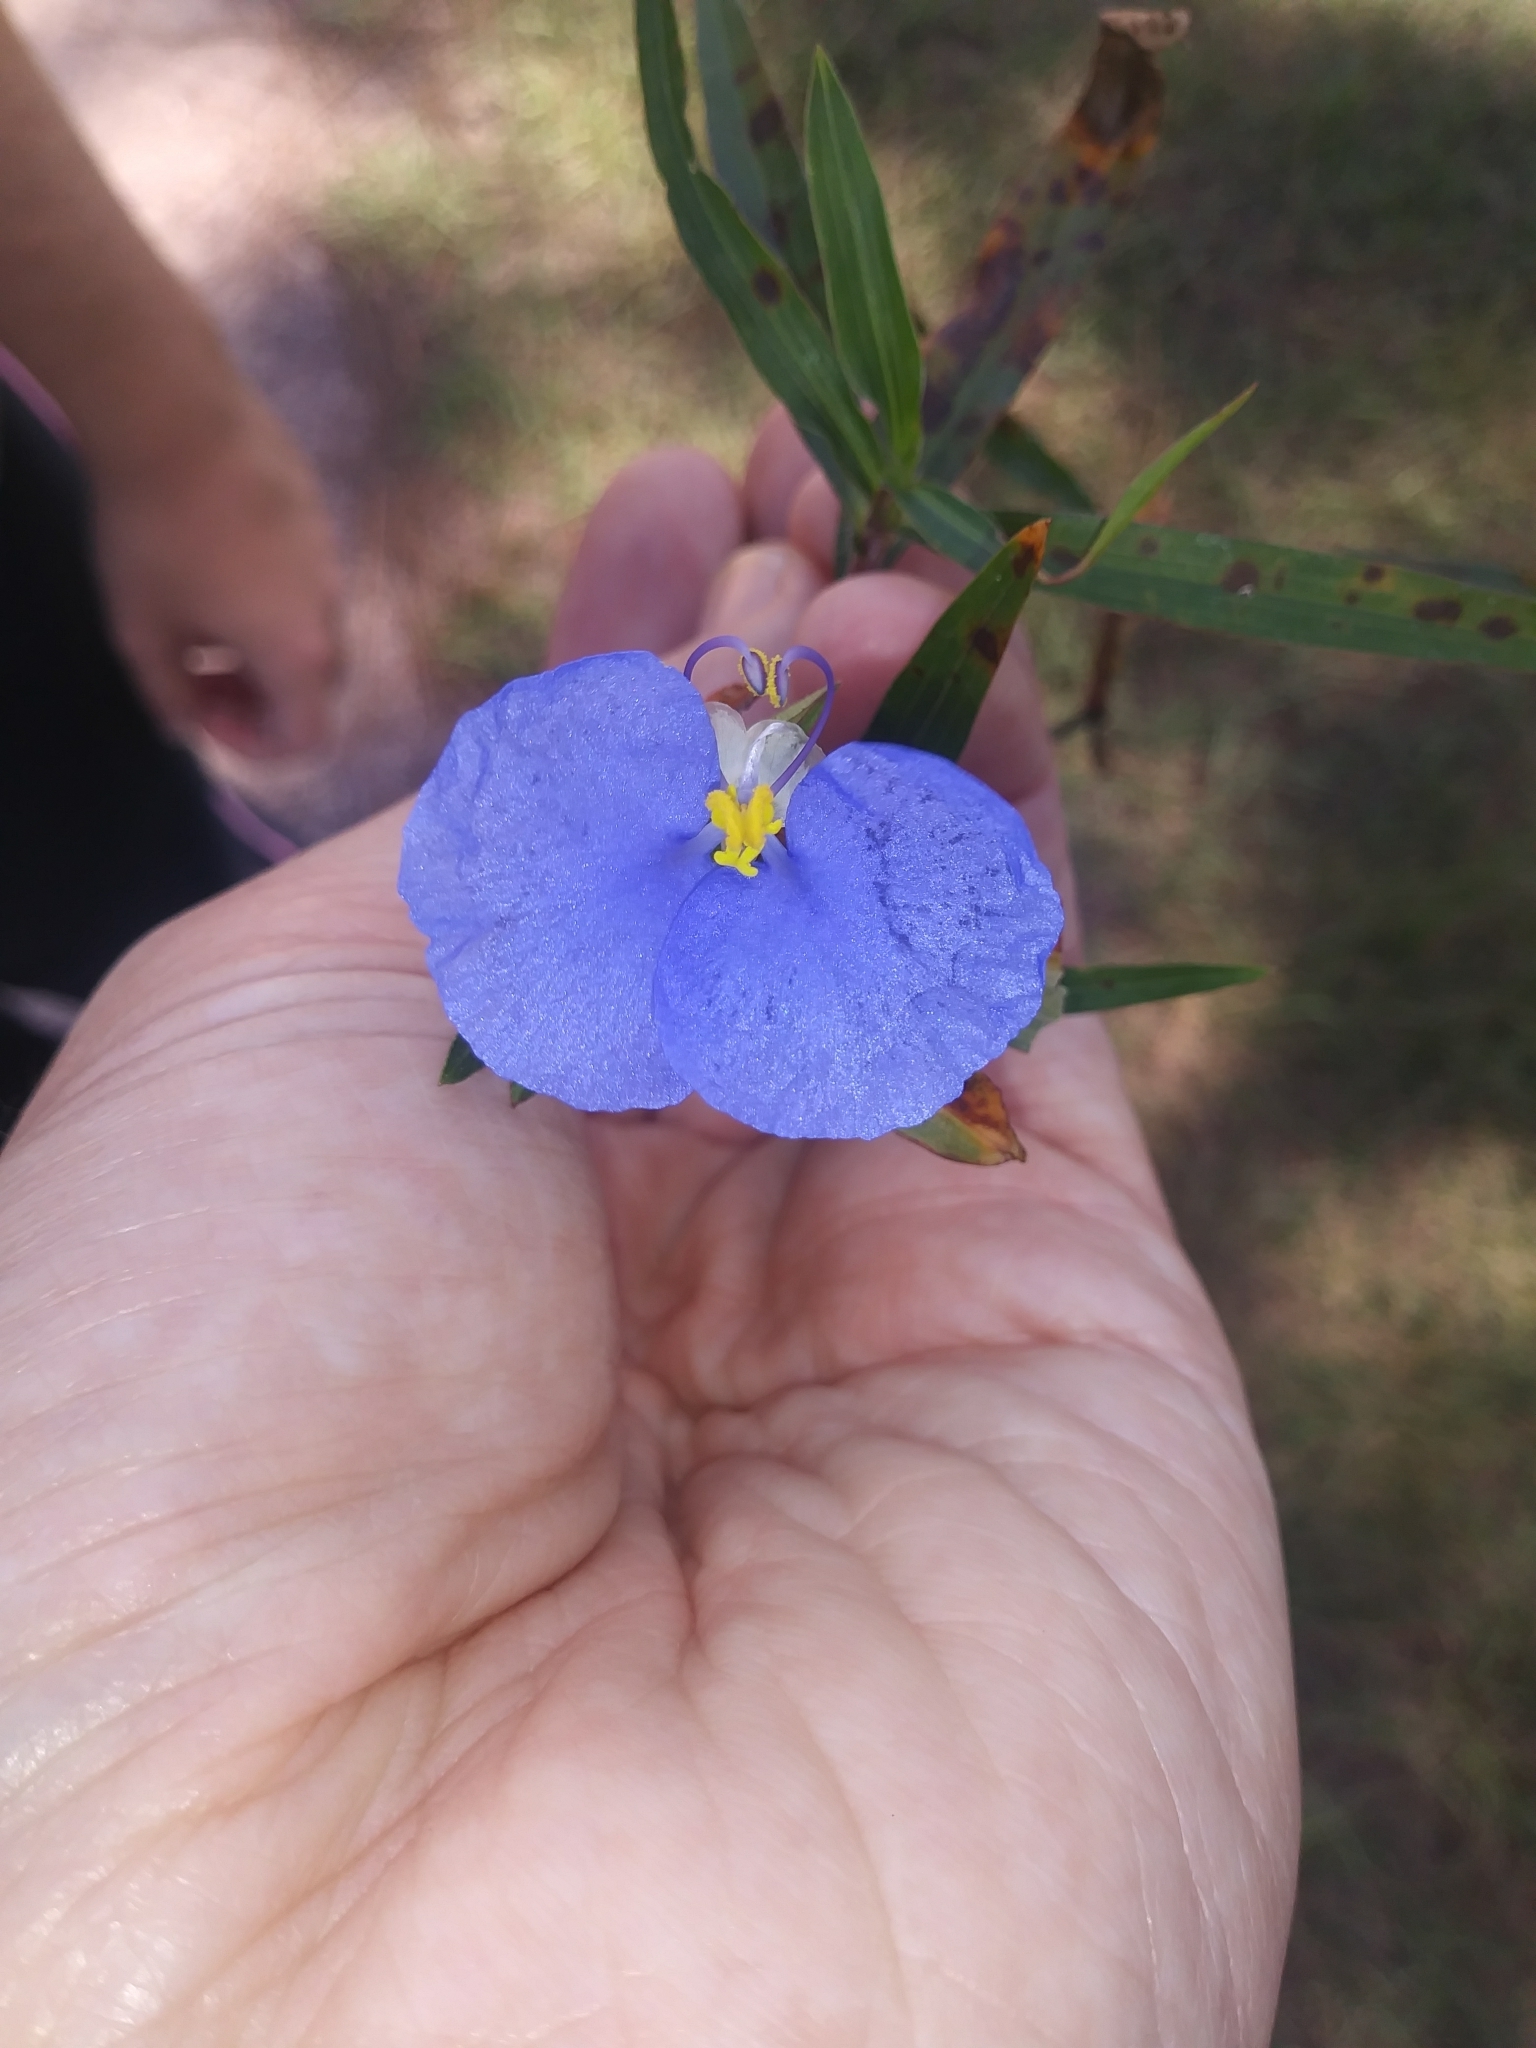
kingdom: Plantae
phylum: Tracheophyta
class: Liliopsida
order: Commelinales
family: Commelinaceae
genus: Commelina
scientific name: Commelina erecta
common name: Blousel blommetjie
